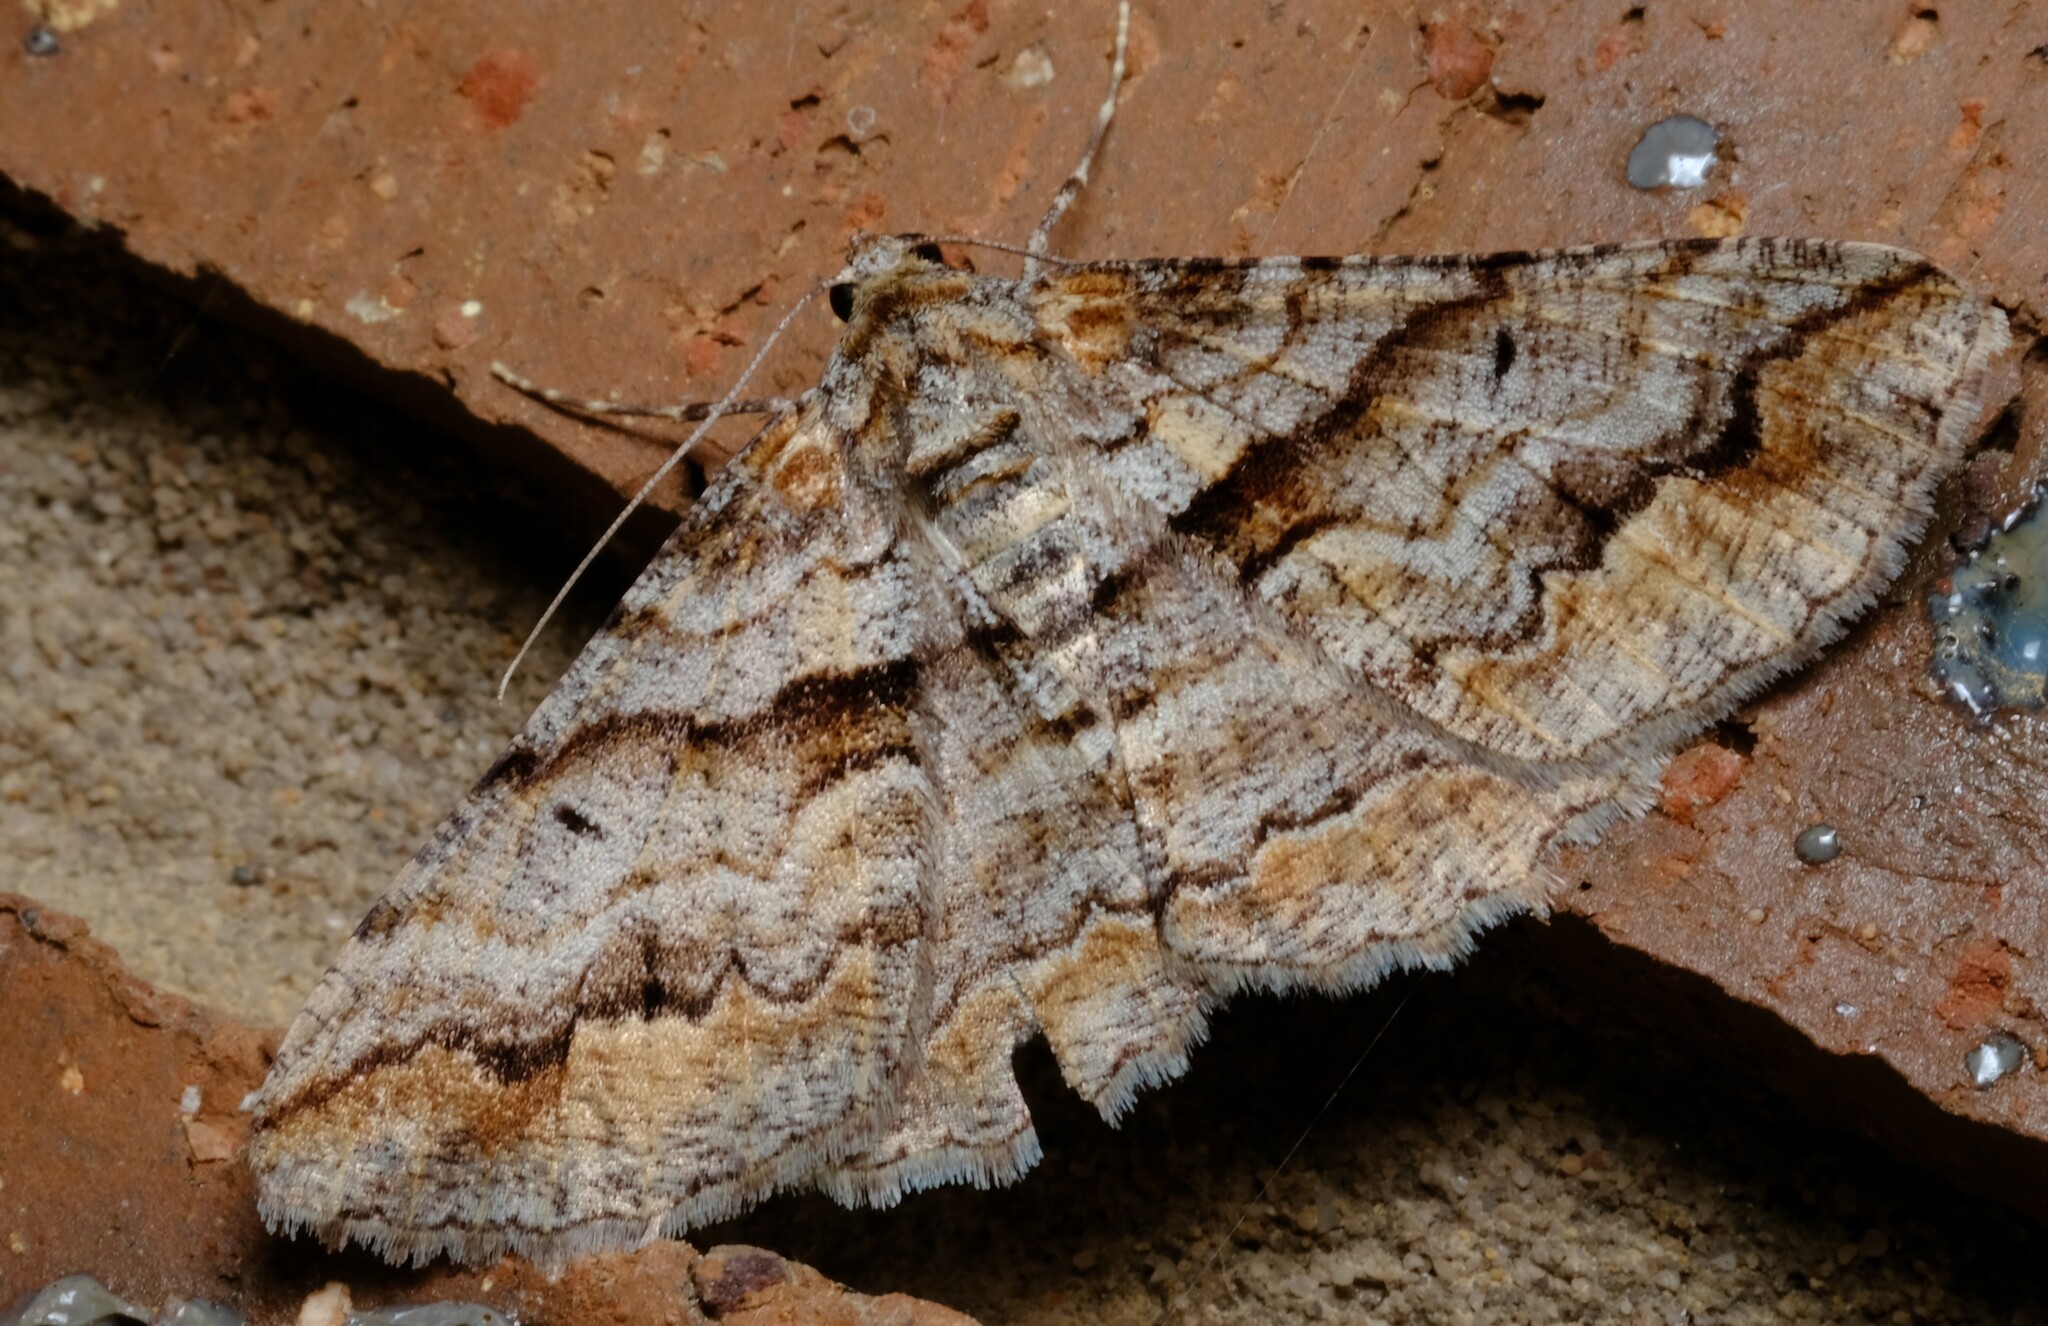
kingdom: Animalia
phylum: Arthropoda
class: Insecta
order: Lepidoptera
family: Geometridae
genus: Gastrinodes
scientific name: Gastrinodes bitaeniaria
